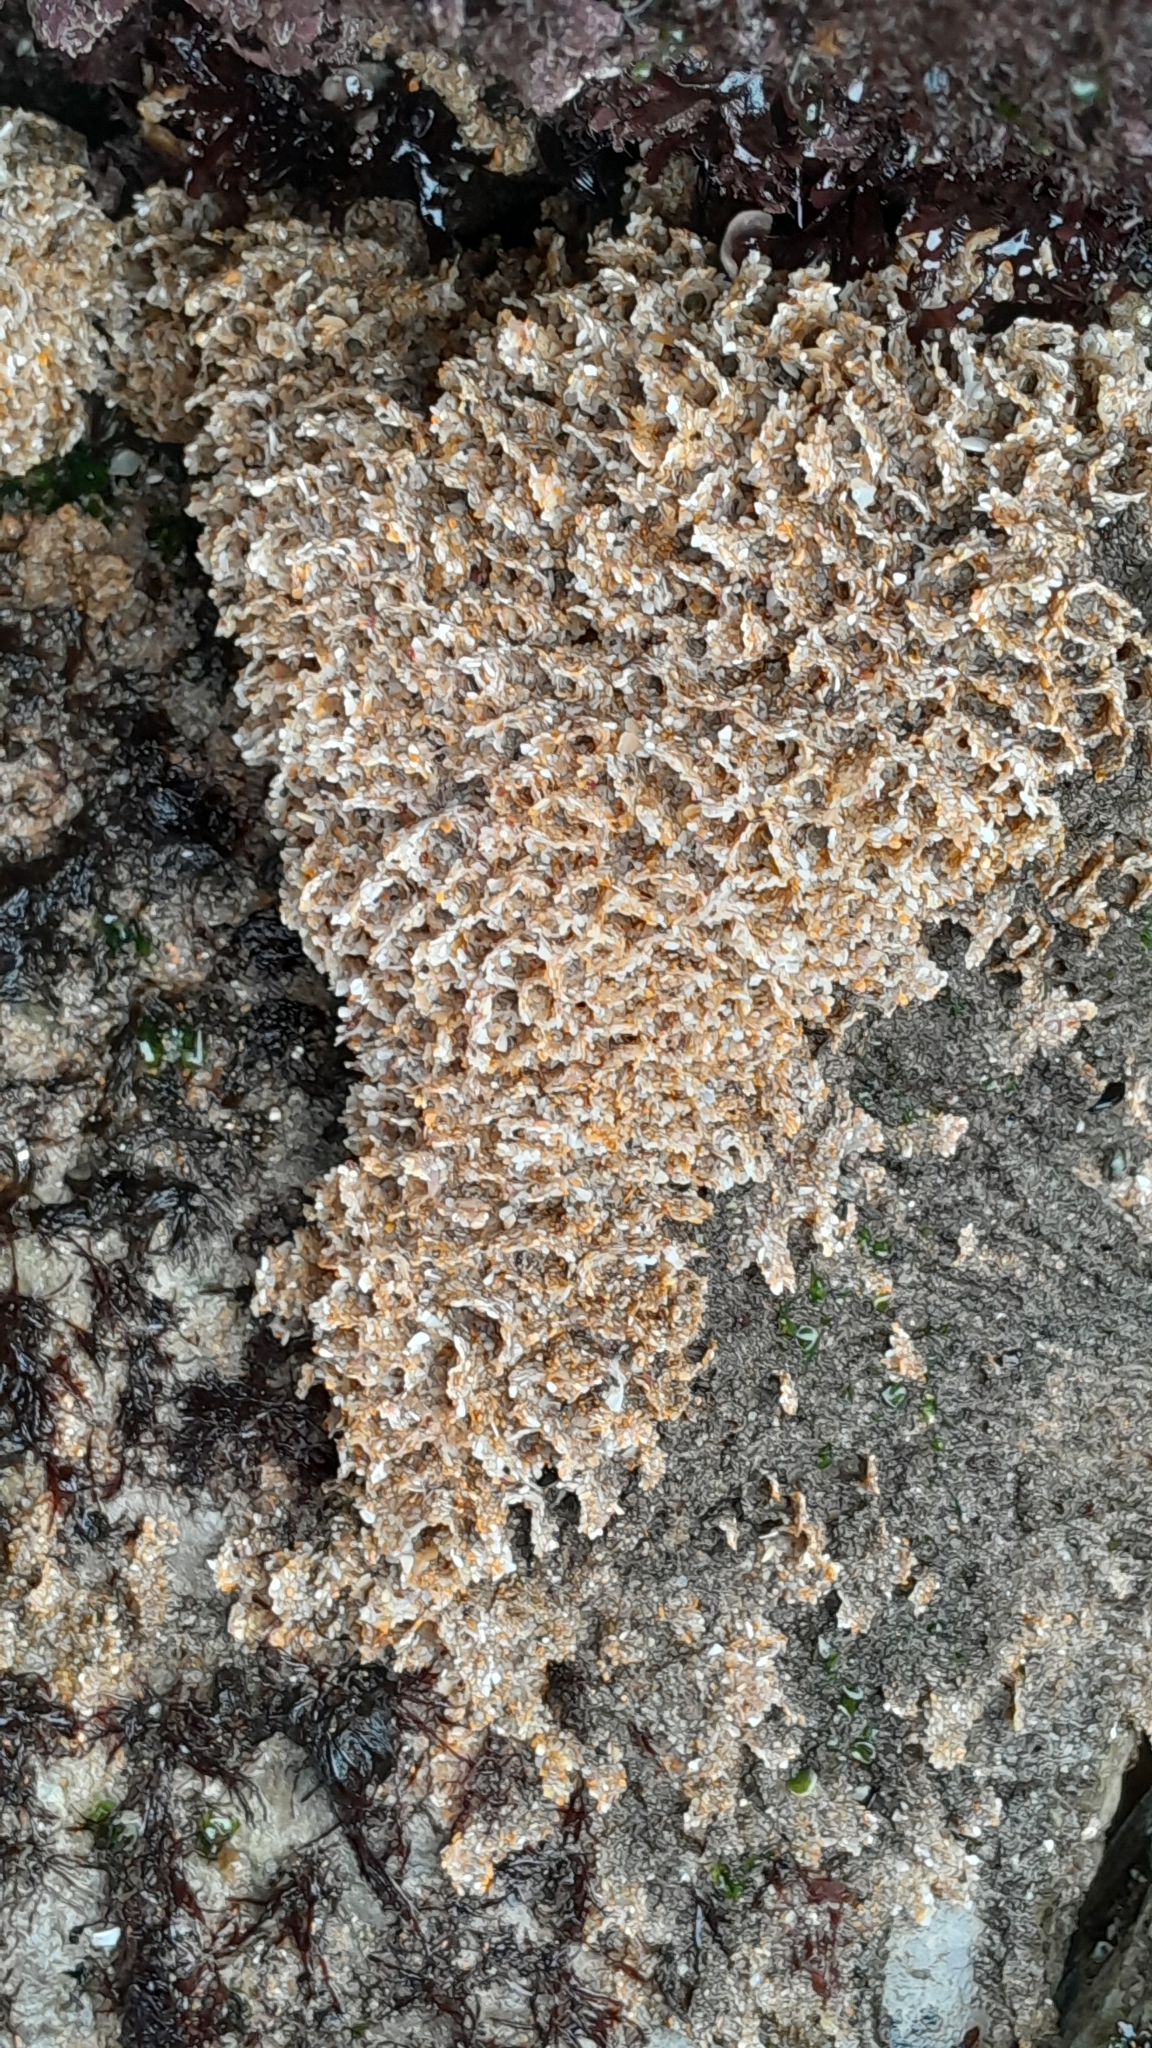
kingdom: Animalia
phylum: Annelida
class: Polychaeta
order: Sabellida
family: Sabellariidae
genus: Sabellaria
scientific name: Sabellaria alveolata
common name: Honeycomb worm
